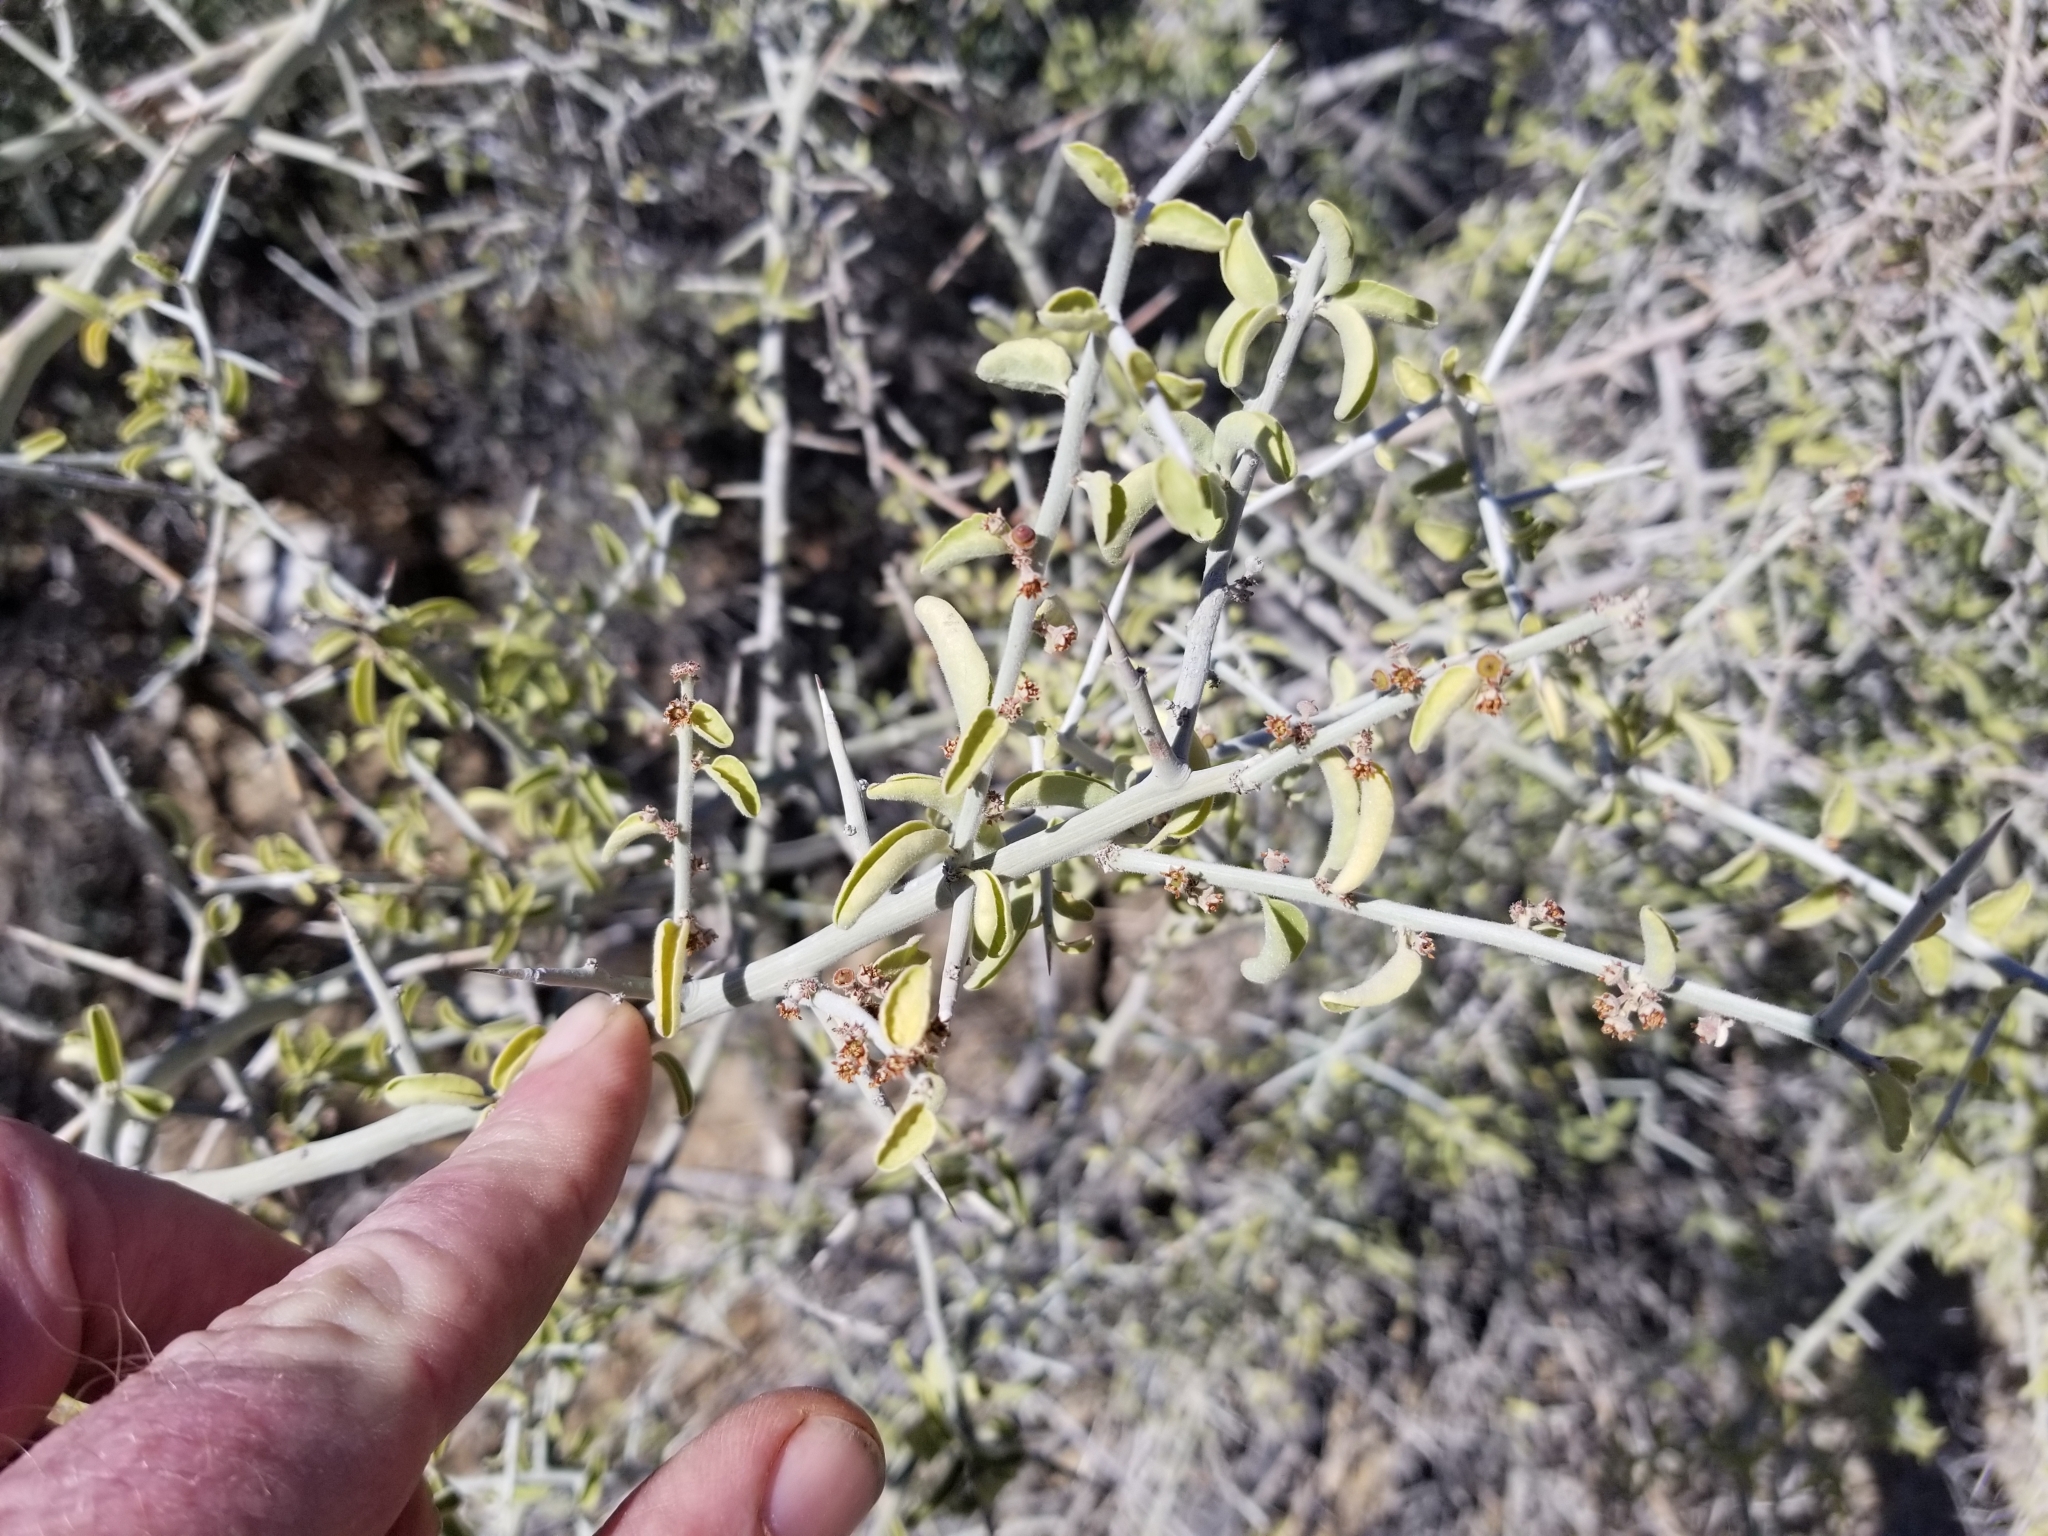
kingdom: Plantae
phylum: Tracheophyta
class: Magnoliopsida
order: Rosales
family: Rhamnaceae
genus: Sarcomphalus
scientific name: Sarcomphalus obtusifolius
